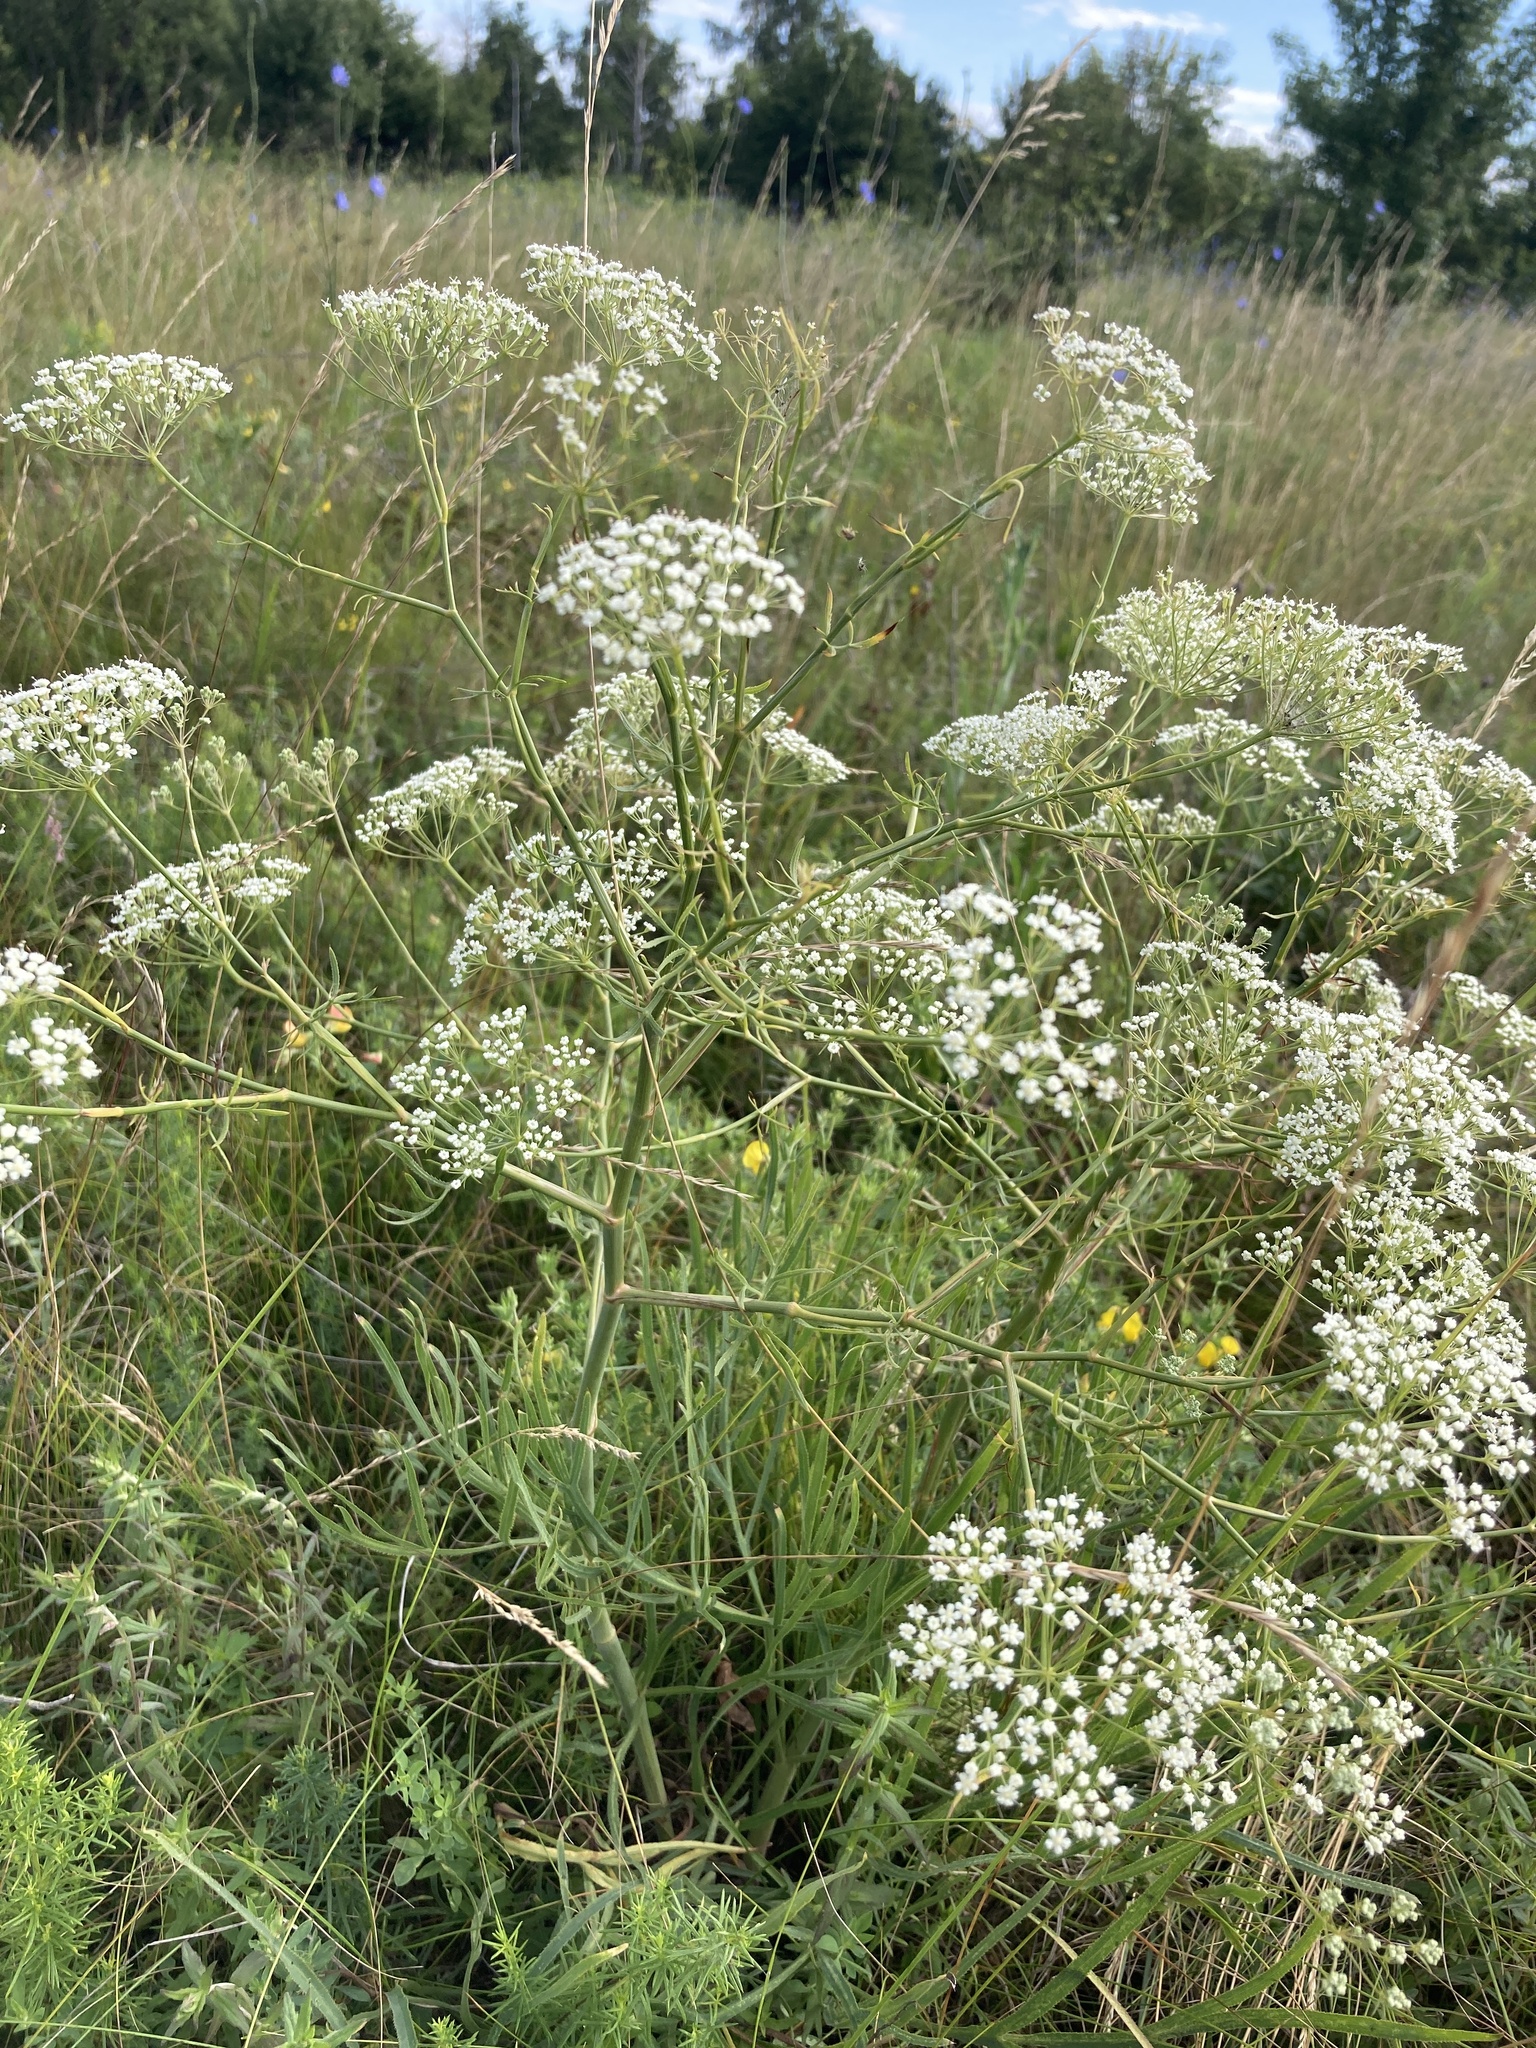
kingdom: Plantae
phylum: Tracheophyta
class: Magnoliopsida
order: Apiales
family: Apiaceae
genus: Falcaria
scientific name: Falcaria vulgaris
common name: Longleaf
